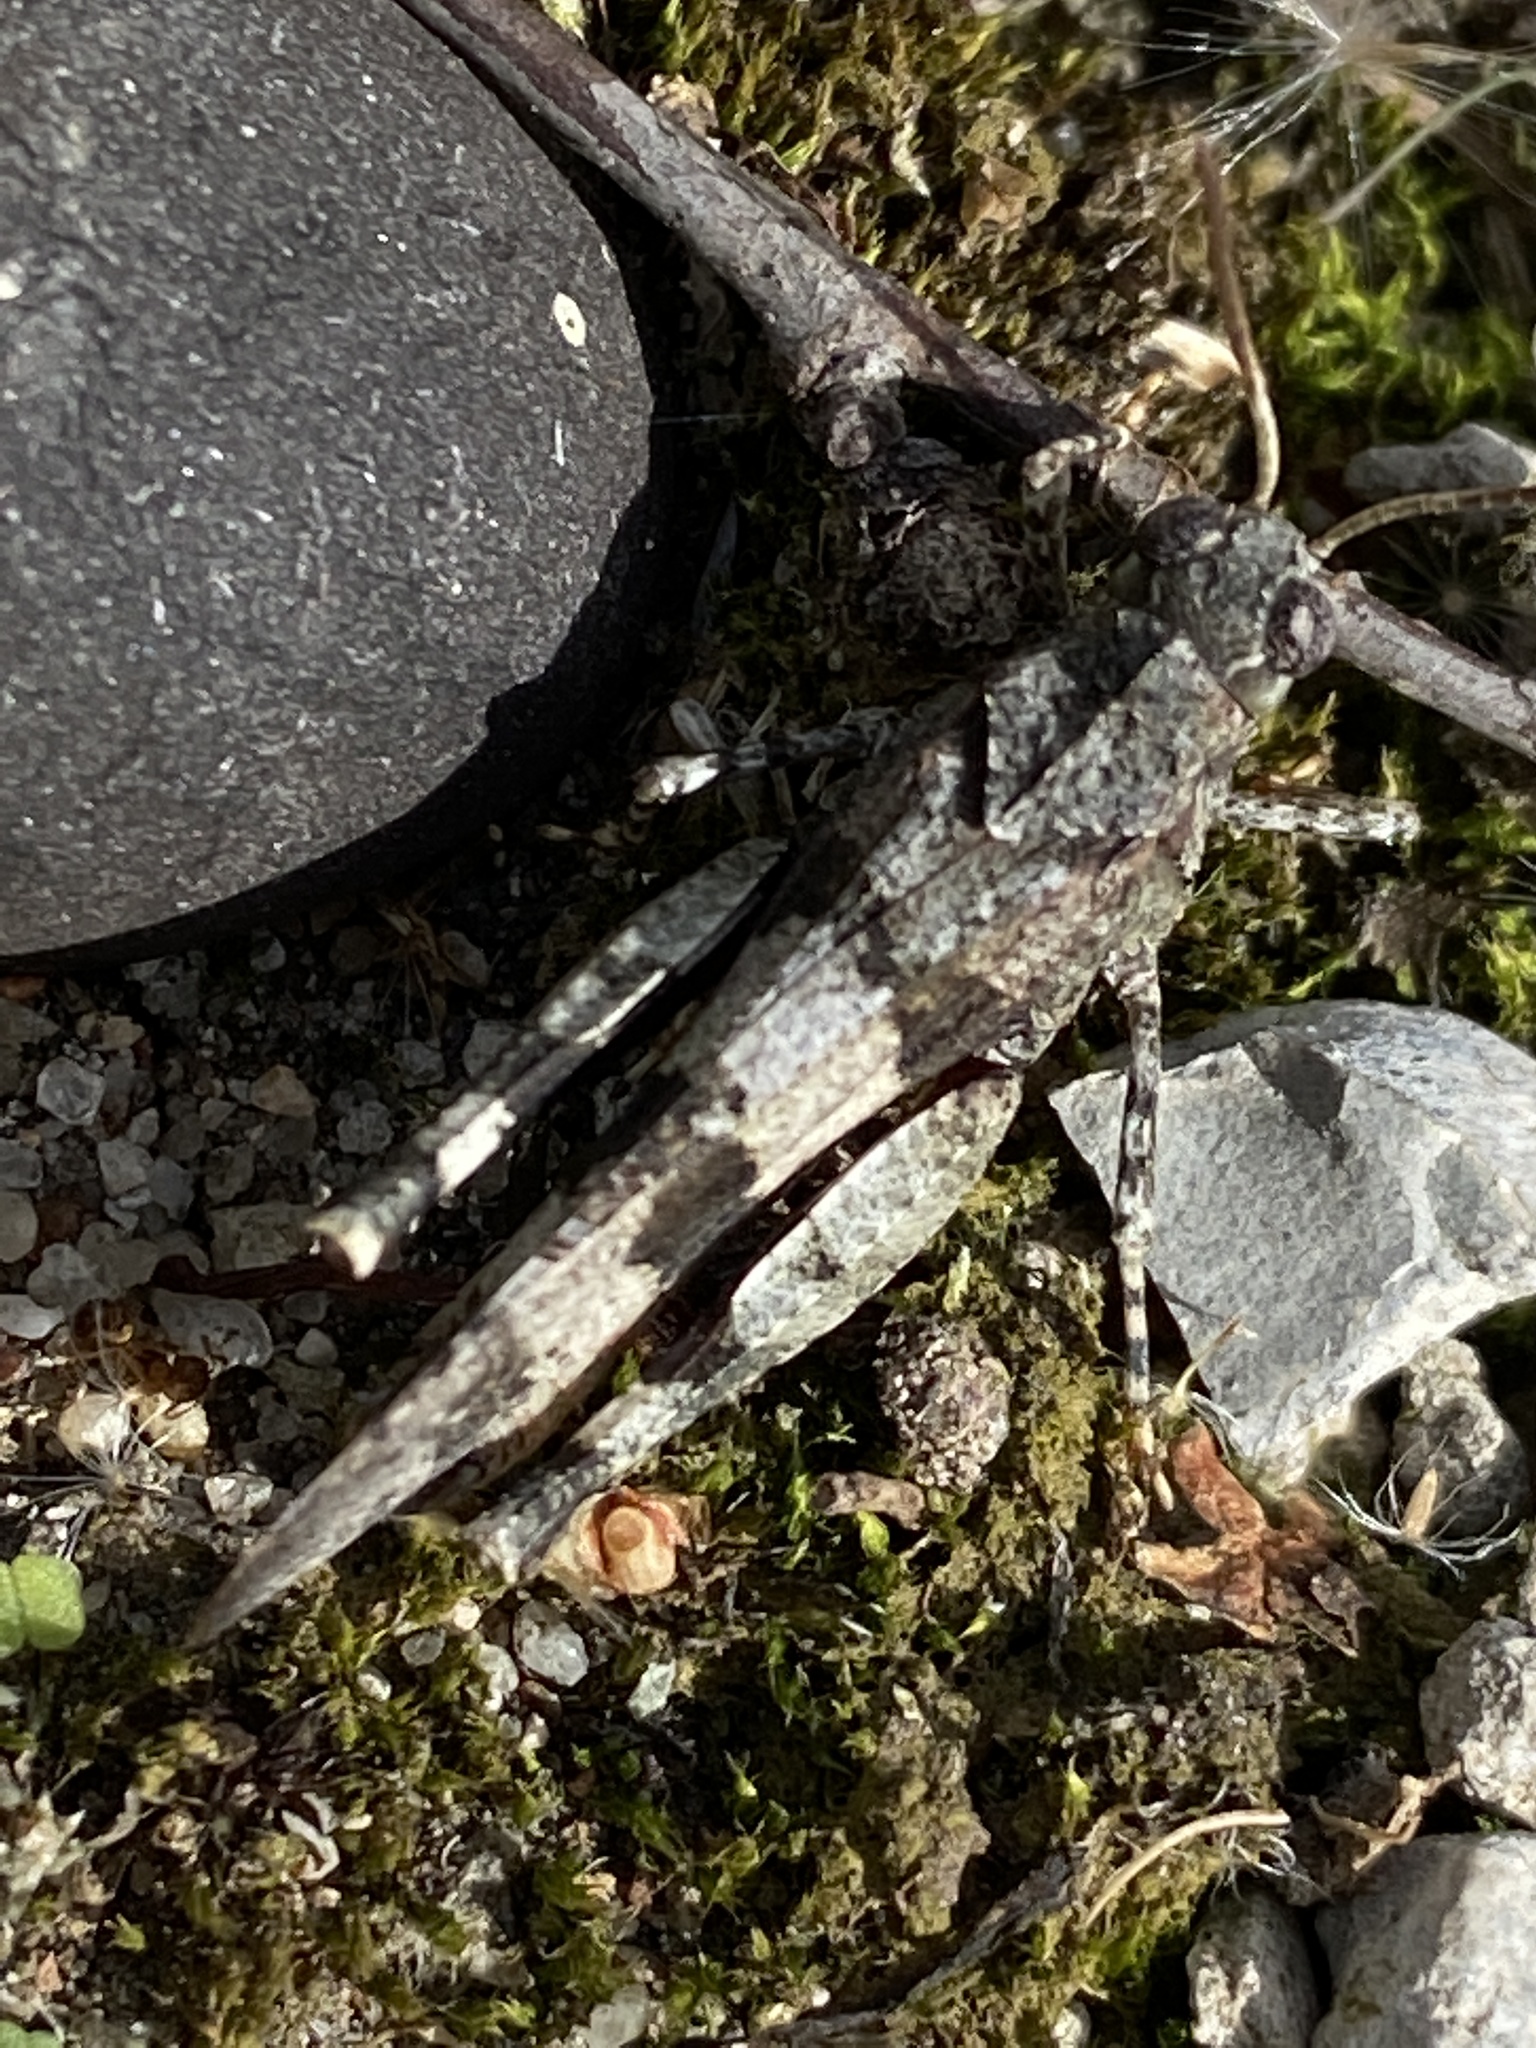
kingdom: Animalia
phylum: Arthropoda
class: Insecta
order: Orthoptera
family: Acrididae
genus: Oedipoda
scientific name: Oedipoda caerulescens
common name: Blue-winged grasshopper
